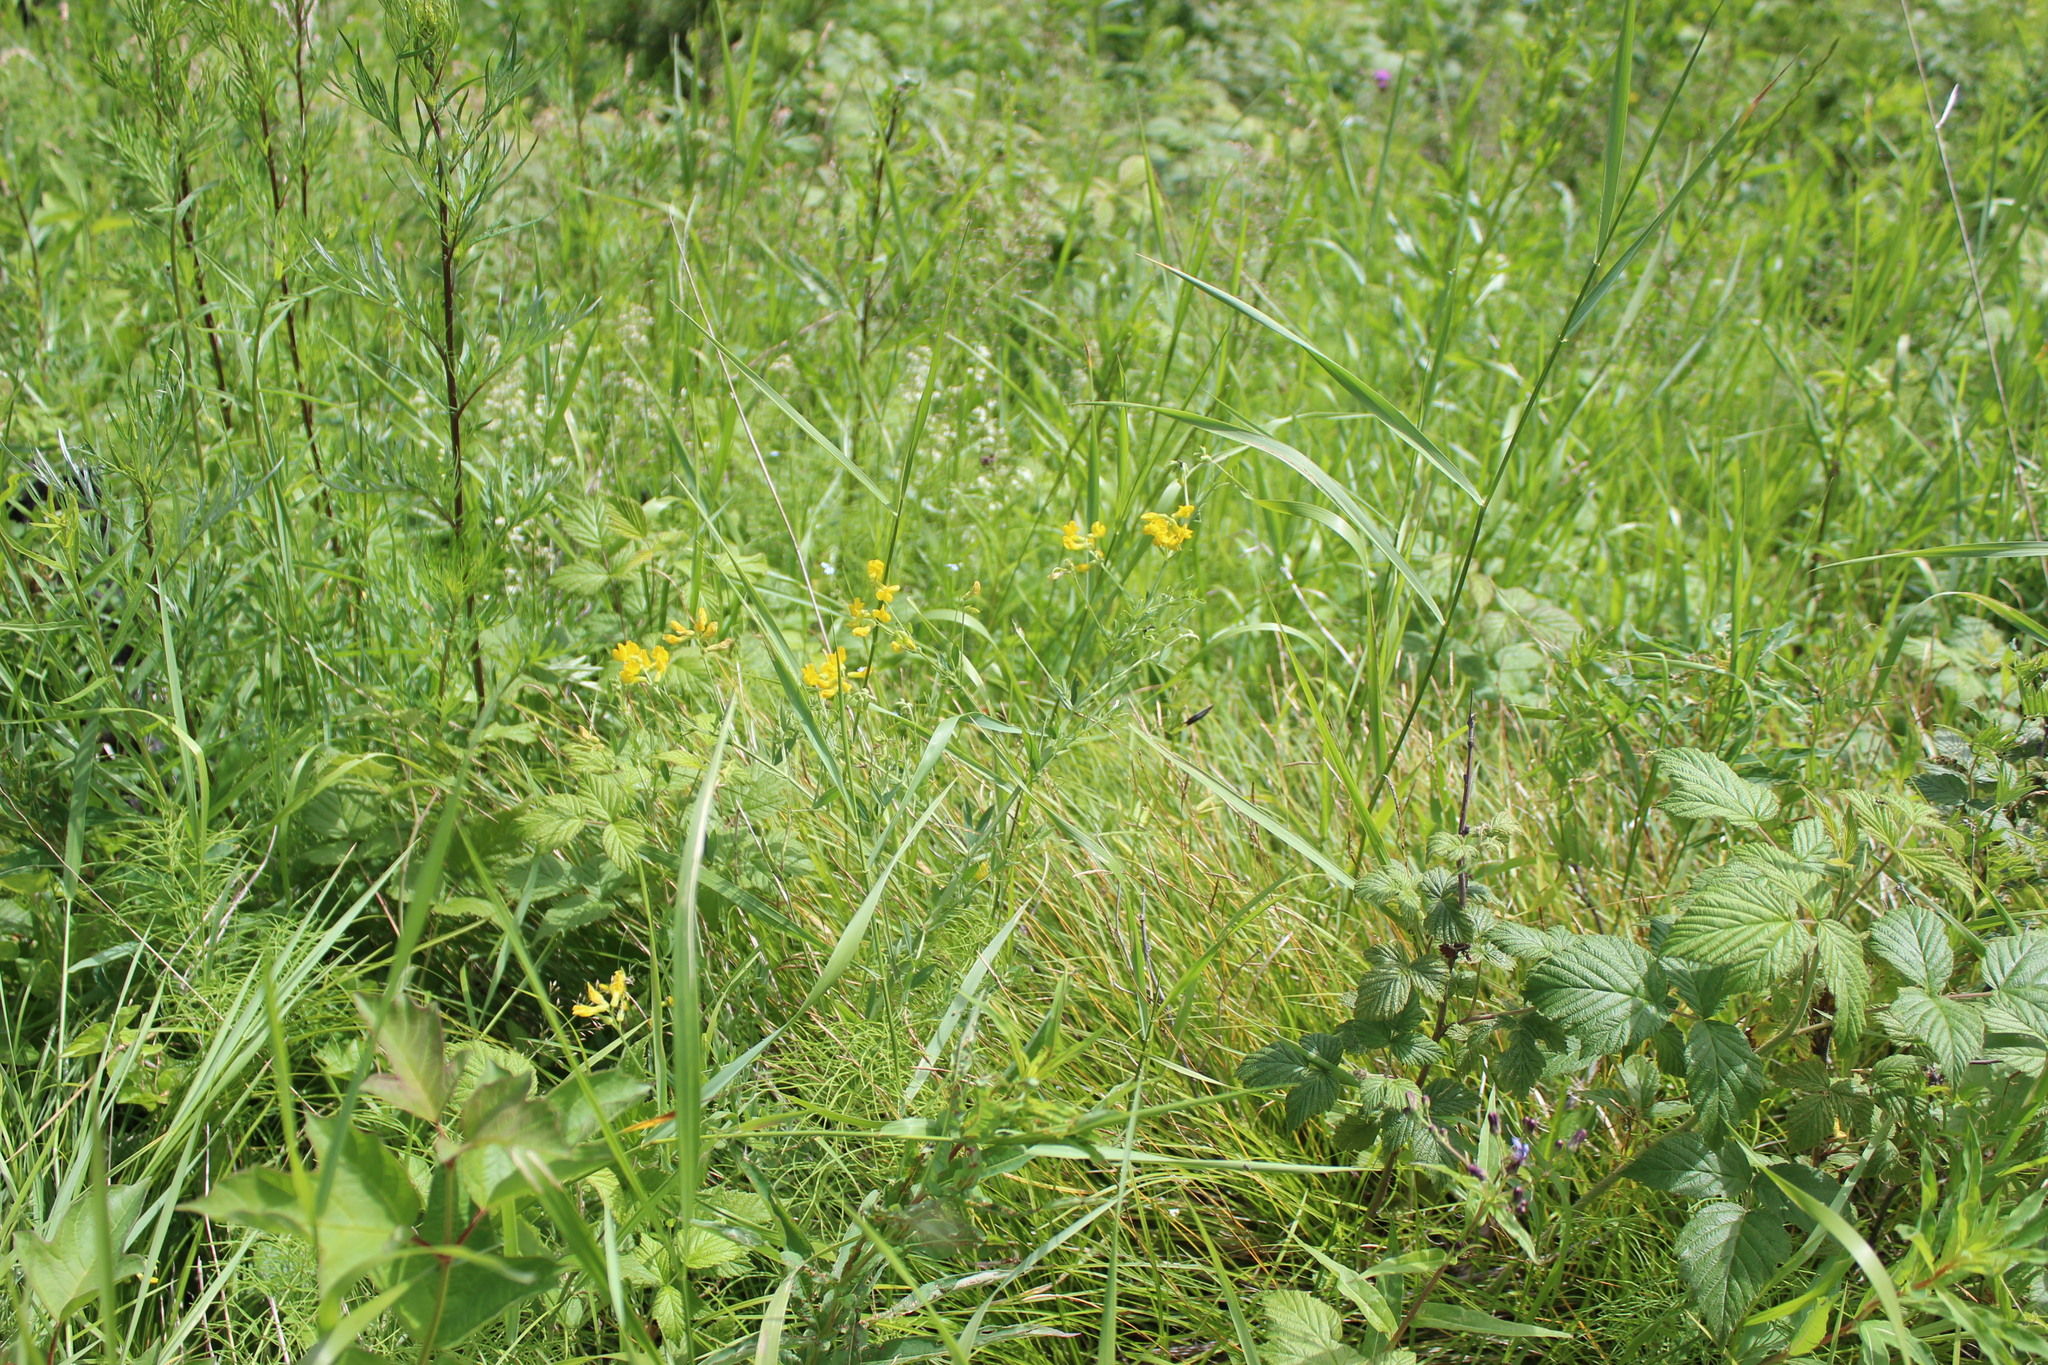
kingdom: Plantae
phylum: Tracheophyta
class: Magnoliopsida
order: Fabales
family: Fabaceae
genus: Lathyrus
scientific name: Lathyrus pratensis
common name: Meadow vetchling
